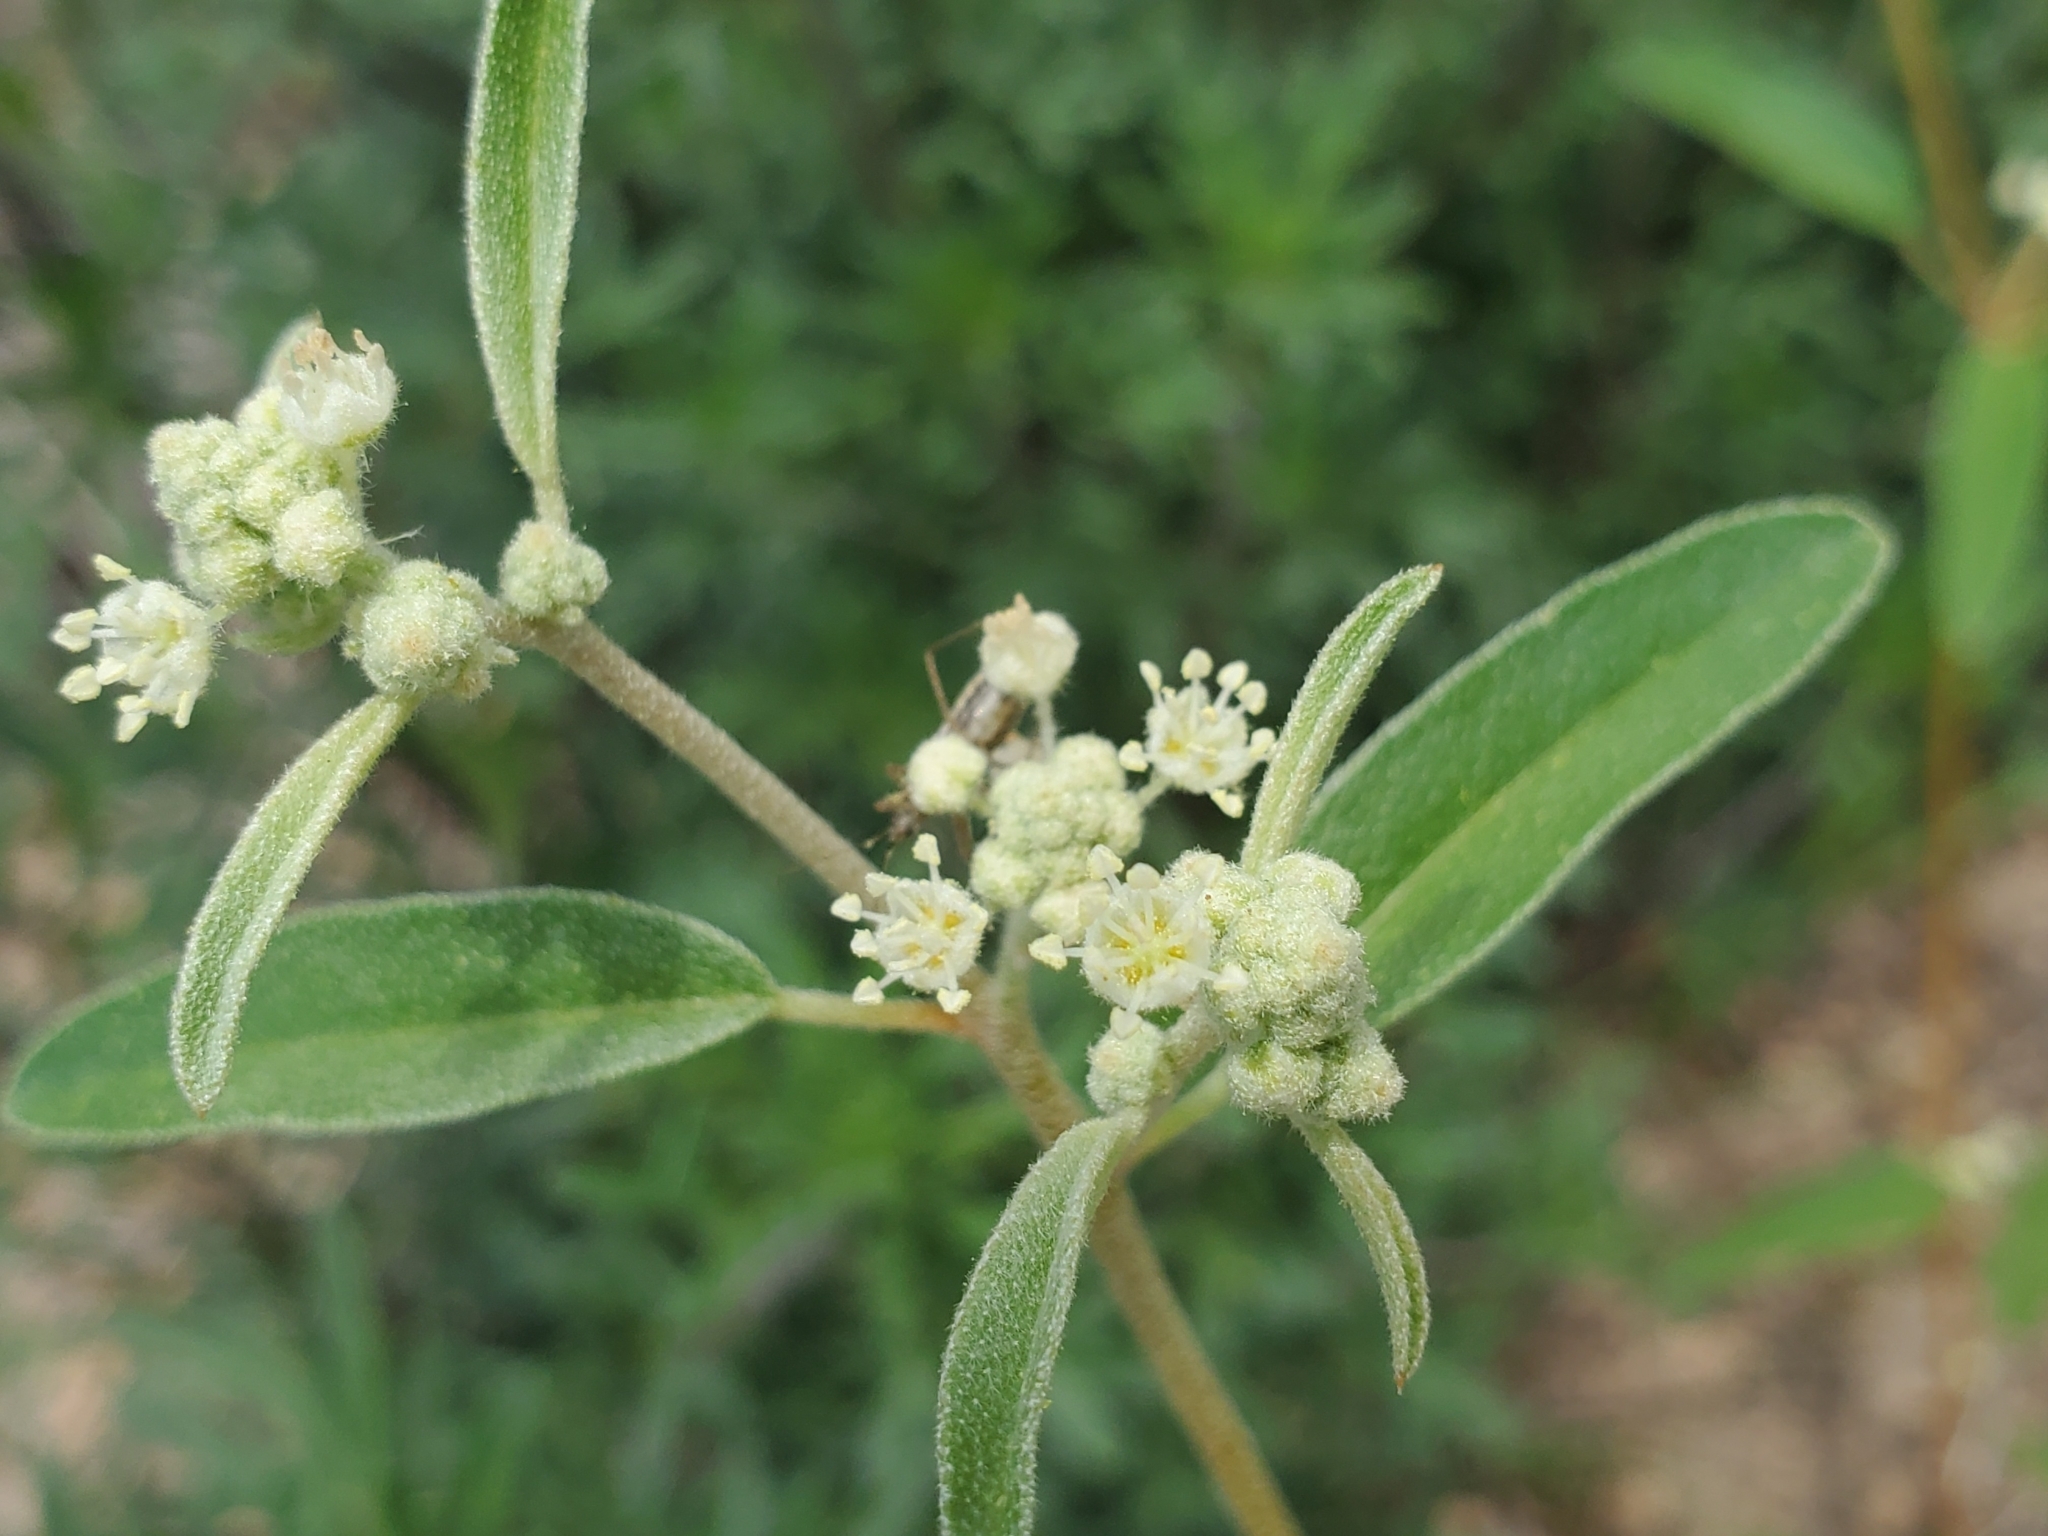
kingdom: Plantae
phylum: Tracheophyta
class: Magnoliopsida
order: Malpighiales
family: Euphorbiaceae
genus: Croton
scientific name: Croton texensis
